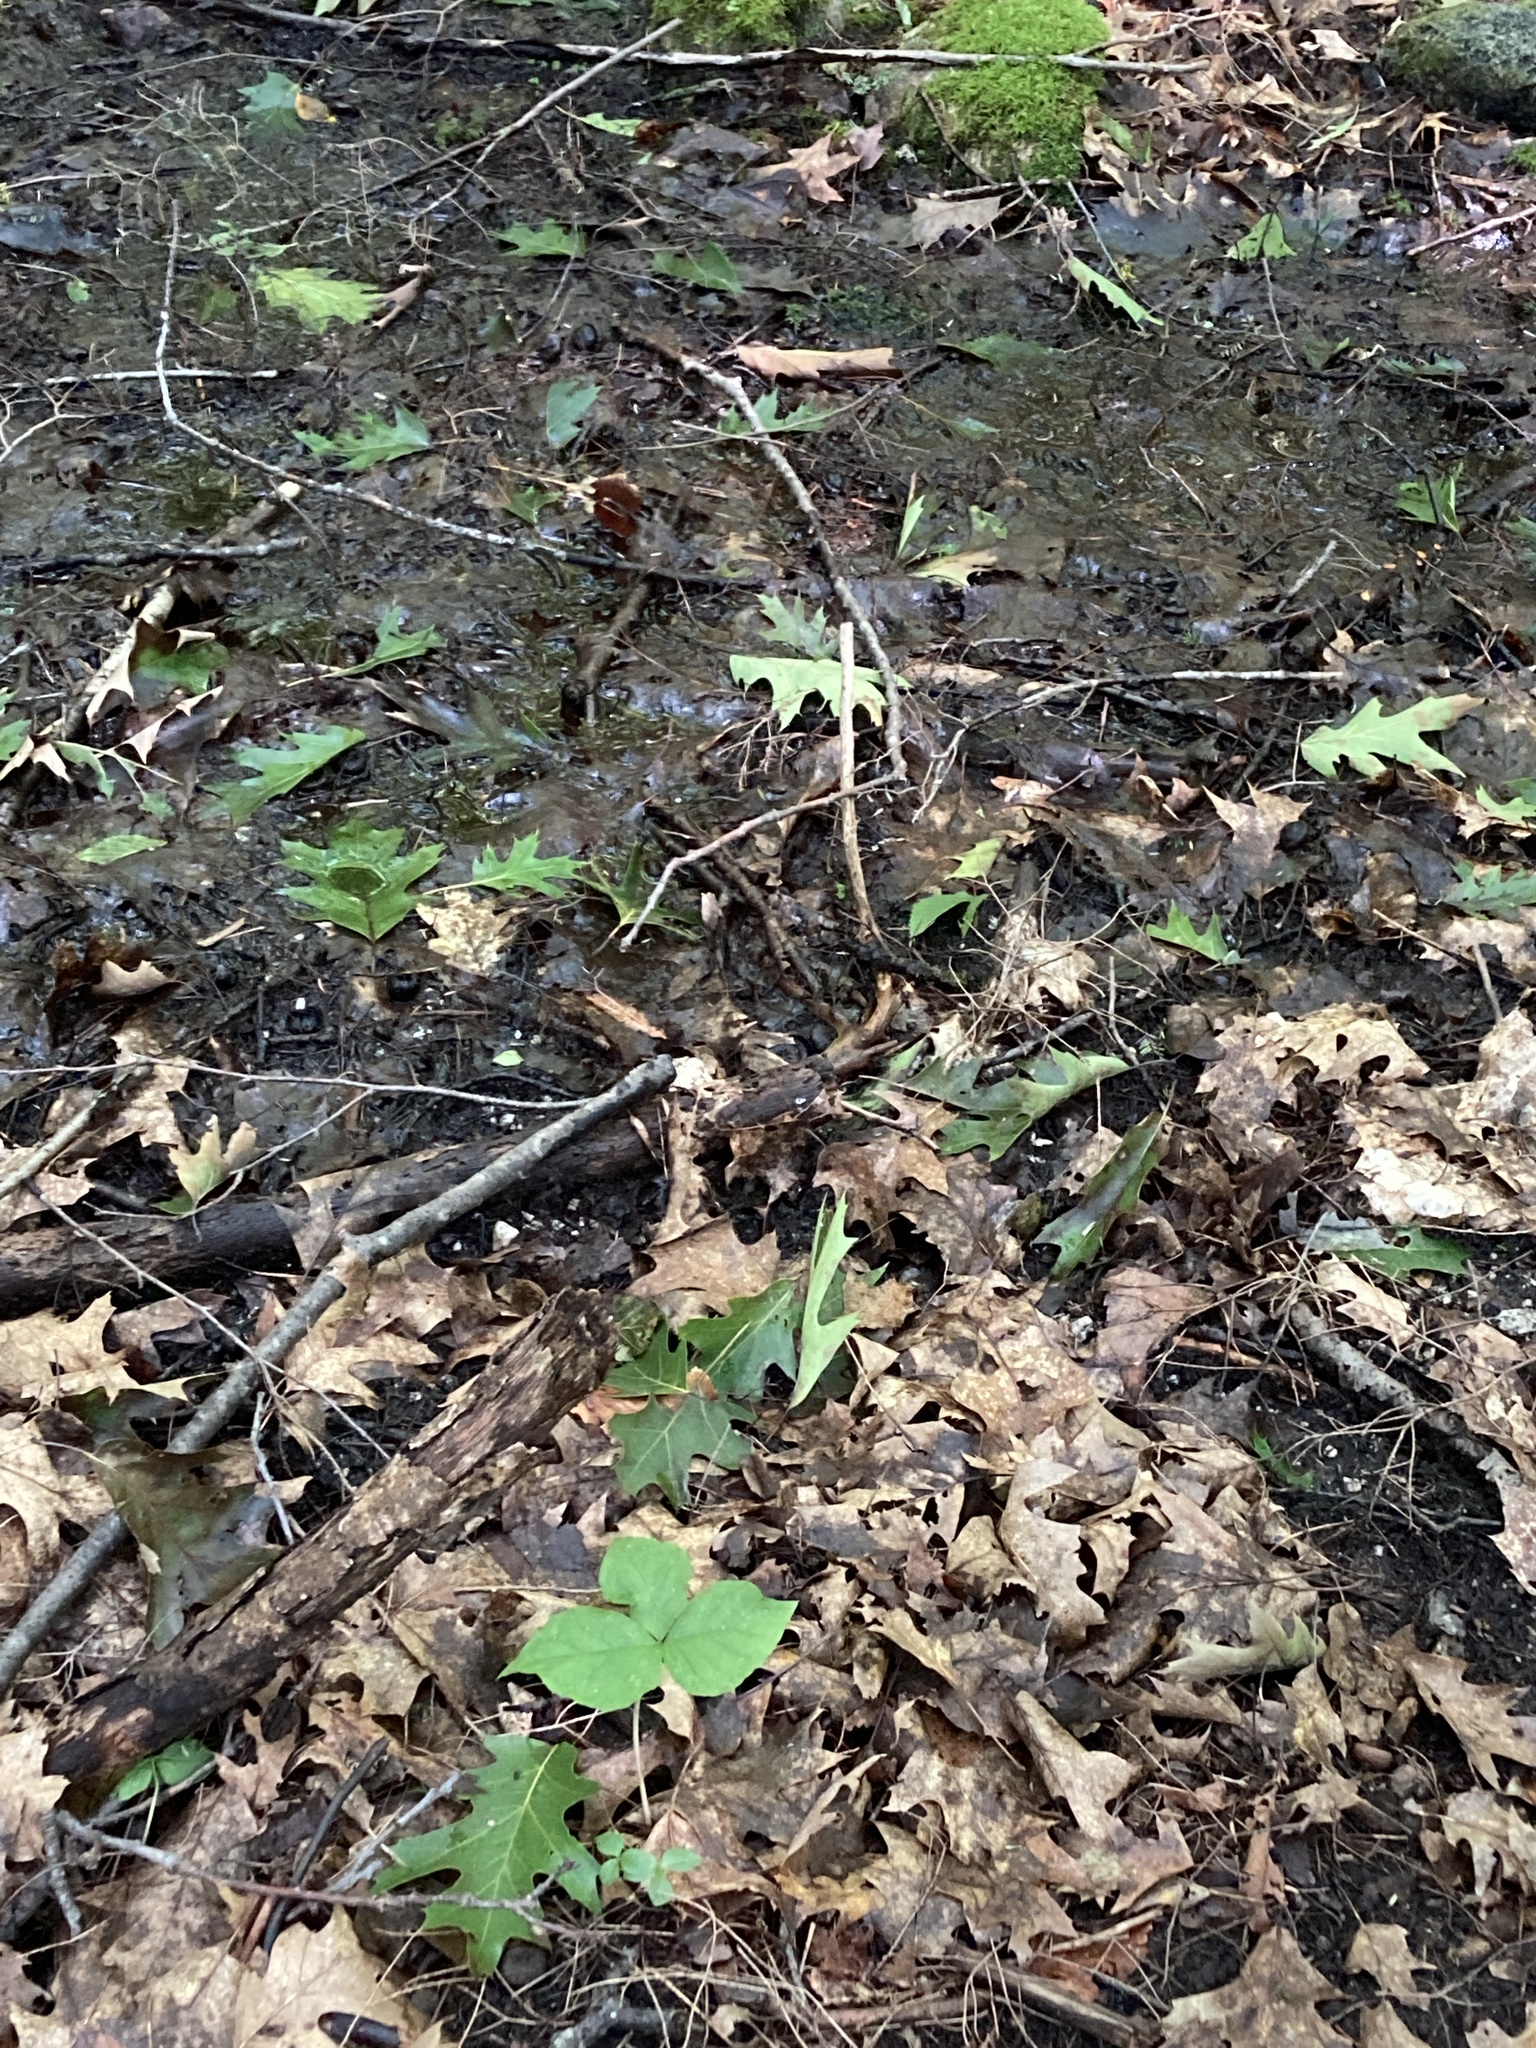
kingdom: Plantae
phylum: Tracheophyta
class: Liliopsida
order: Alismatales
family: Araceae
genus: Arisaema
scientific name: Arisaema triphyllum
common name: Jack-in-the-pulpit
